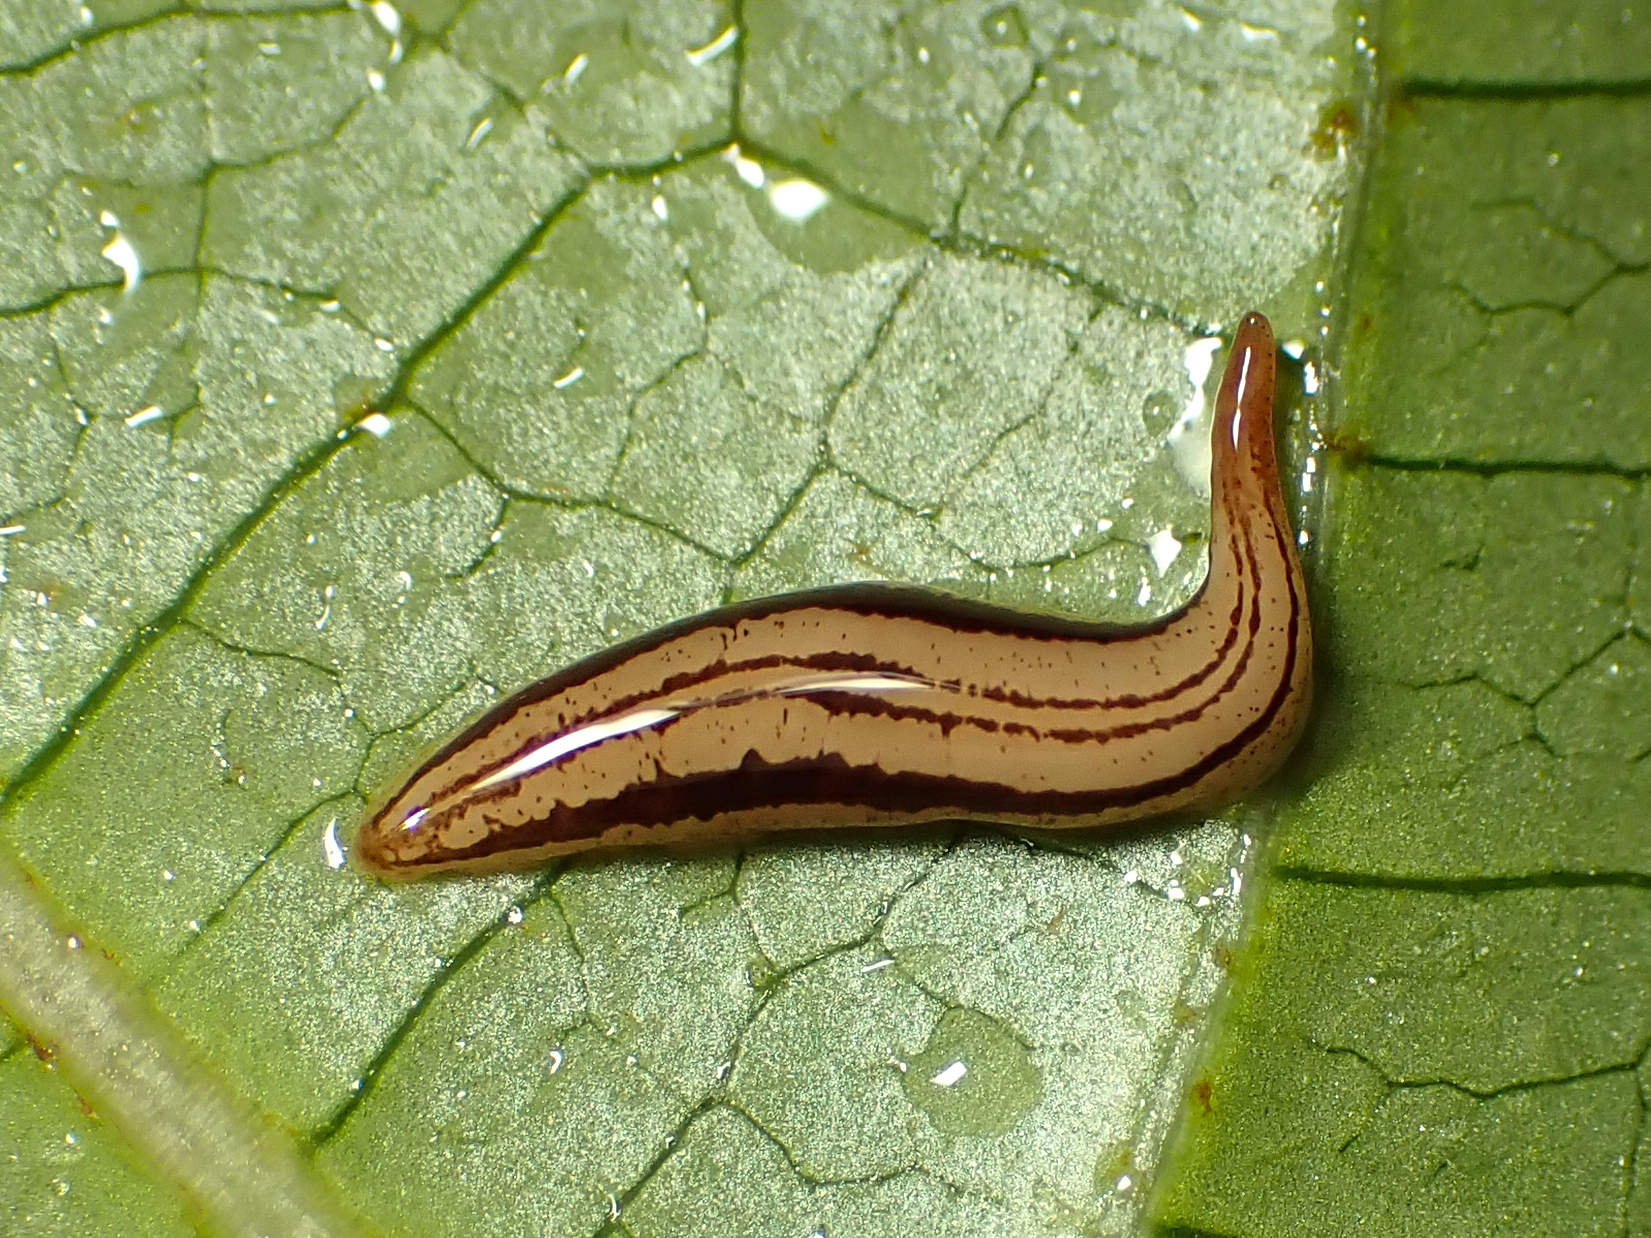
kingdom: Animalia
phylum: Platyhelminthes
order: Tricladida
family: Geoplanidae
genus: Artioposthia
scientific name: Artioposthia polyadoides
